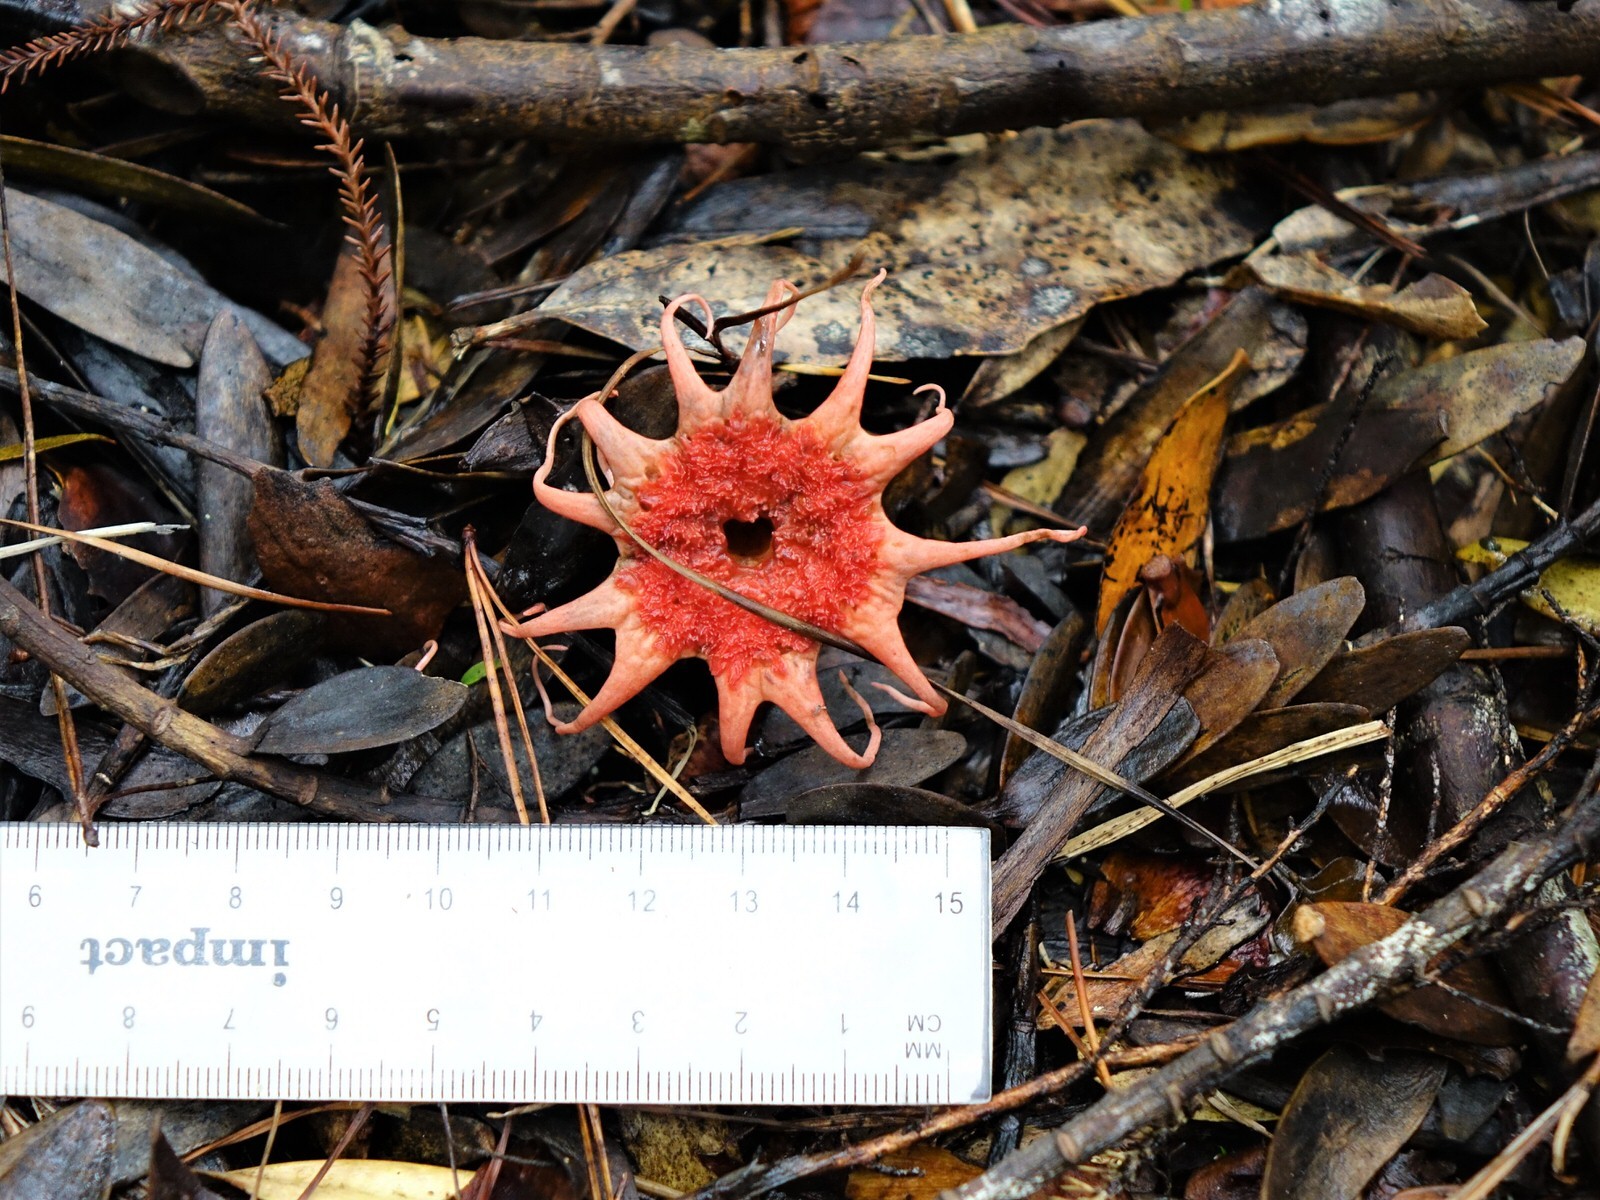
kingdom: Fungi
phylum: Basidiomycota
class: Agaricomycetes
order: Phallales
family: Phallaceae
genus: Aseroe
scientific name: Aseroe rubra
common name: Starfish fungus
